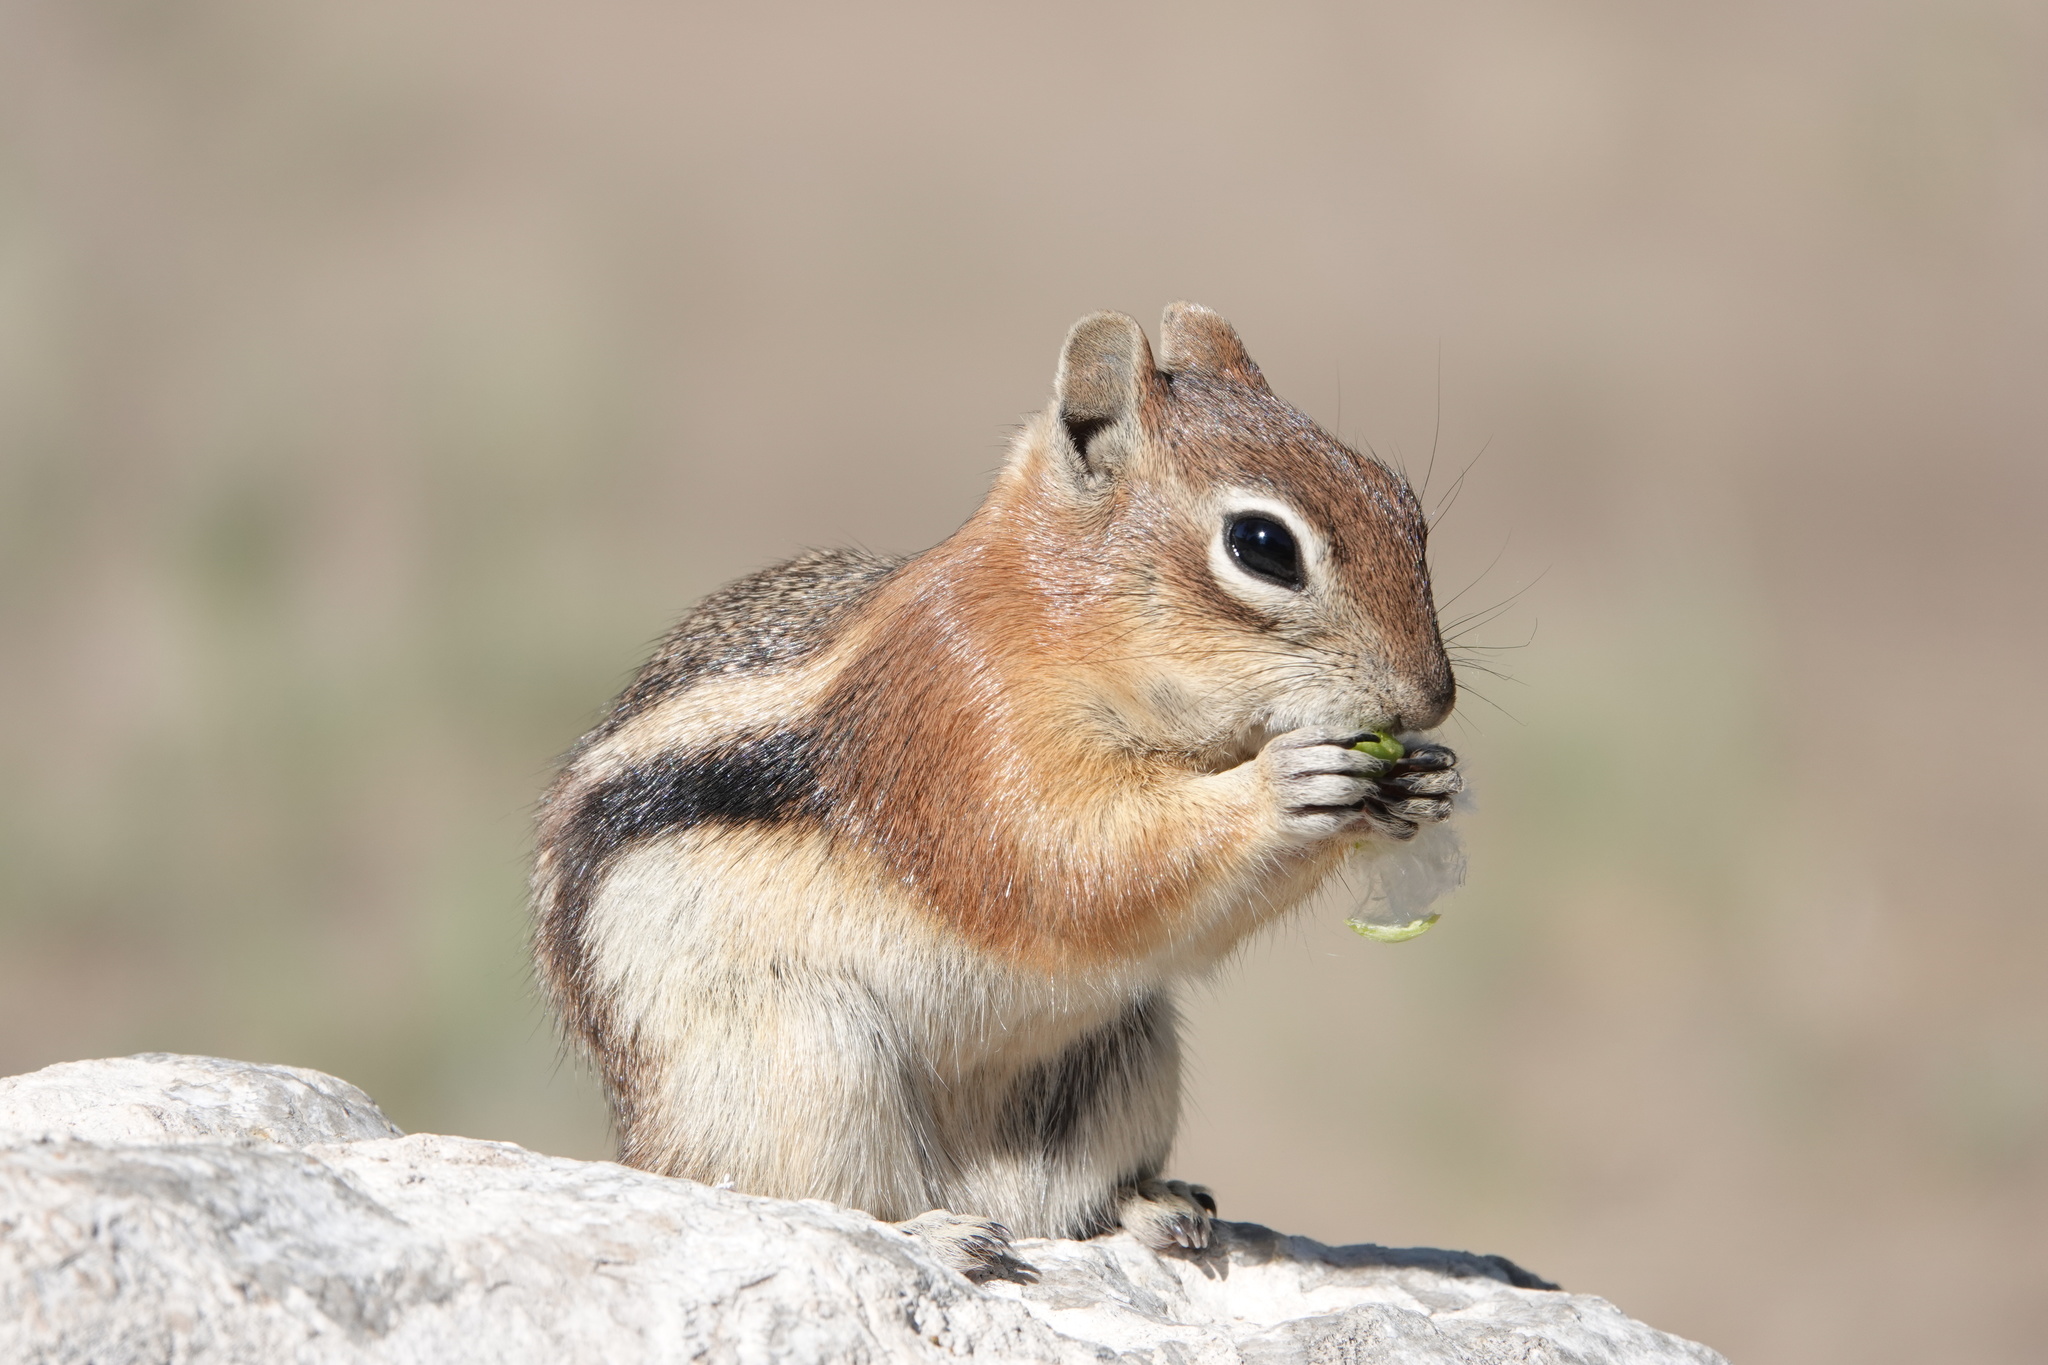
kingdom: Animalia
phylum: Chordata
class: Mammalia
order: Rodentia
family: Sciuridae
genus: Callospermophilus
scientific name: Callospermophilus lateralis
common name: Golden-mantled ground squirrel
